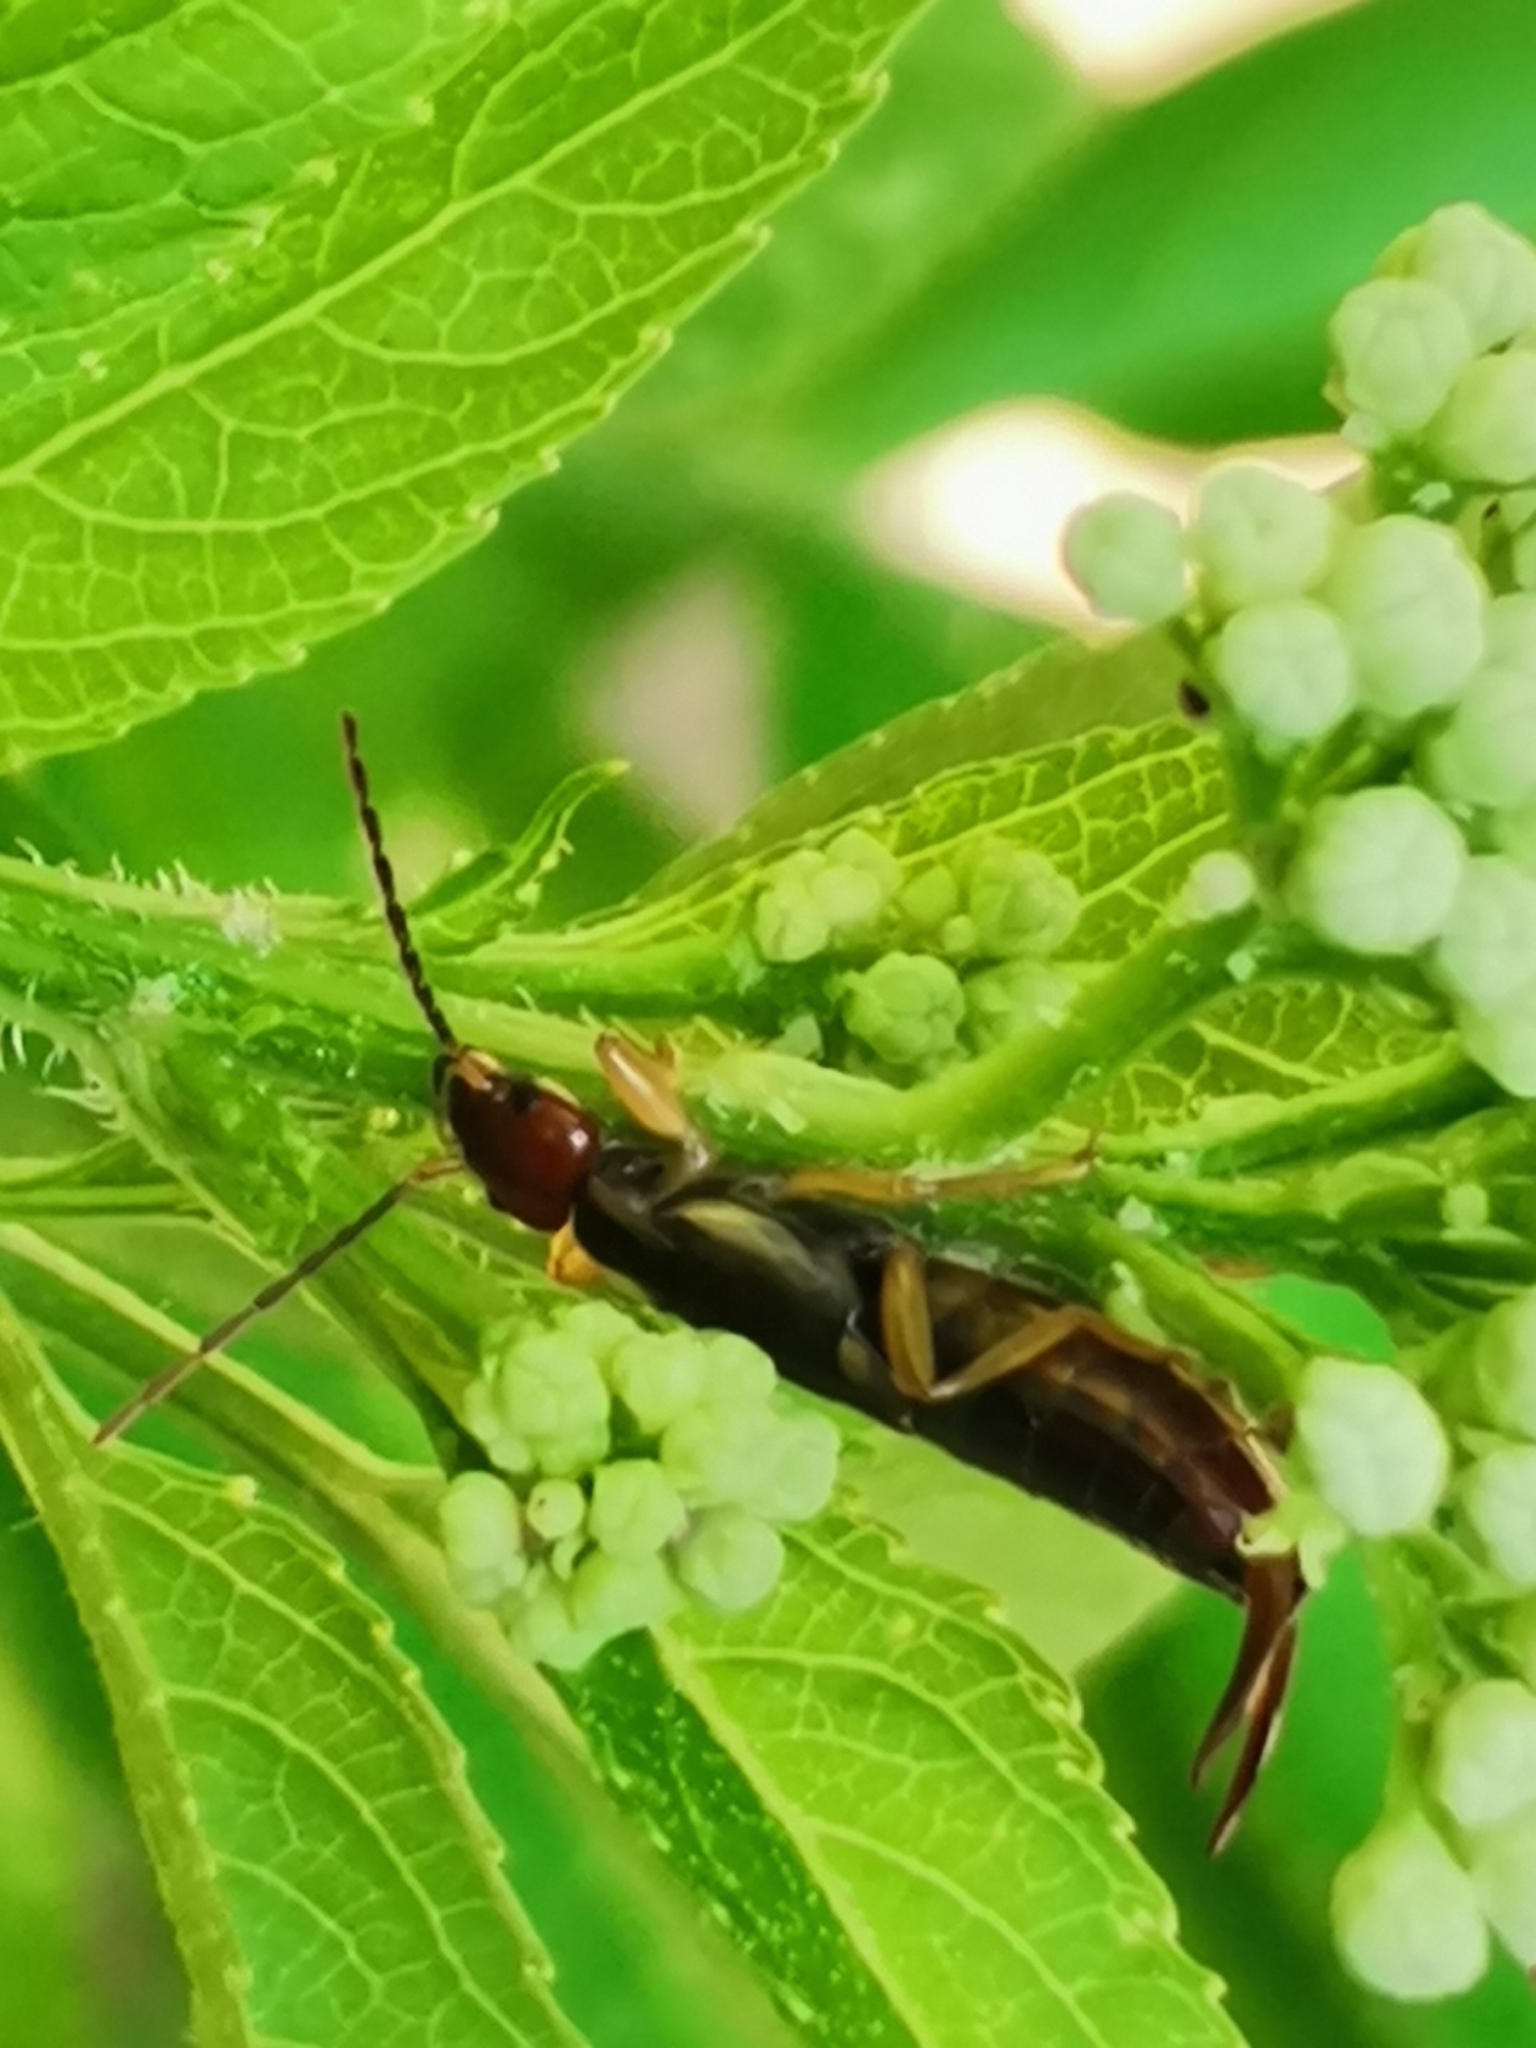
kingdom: Animalia
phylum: Arthropoda
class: Insecta
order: Dermaptera
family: Forficulidae
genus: Forficula
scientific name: Forficula
